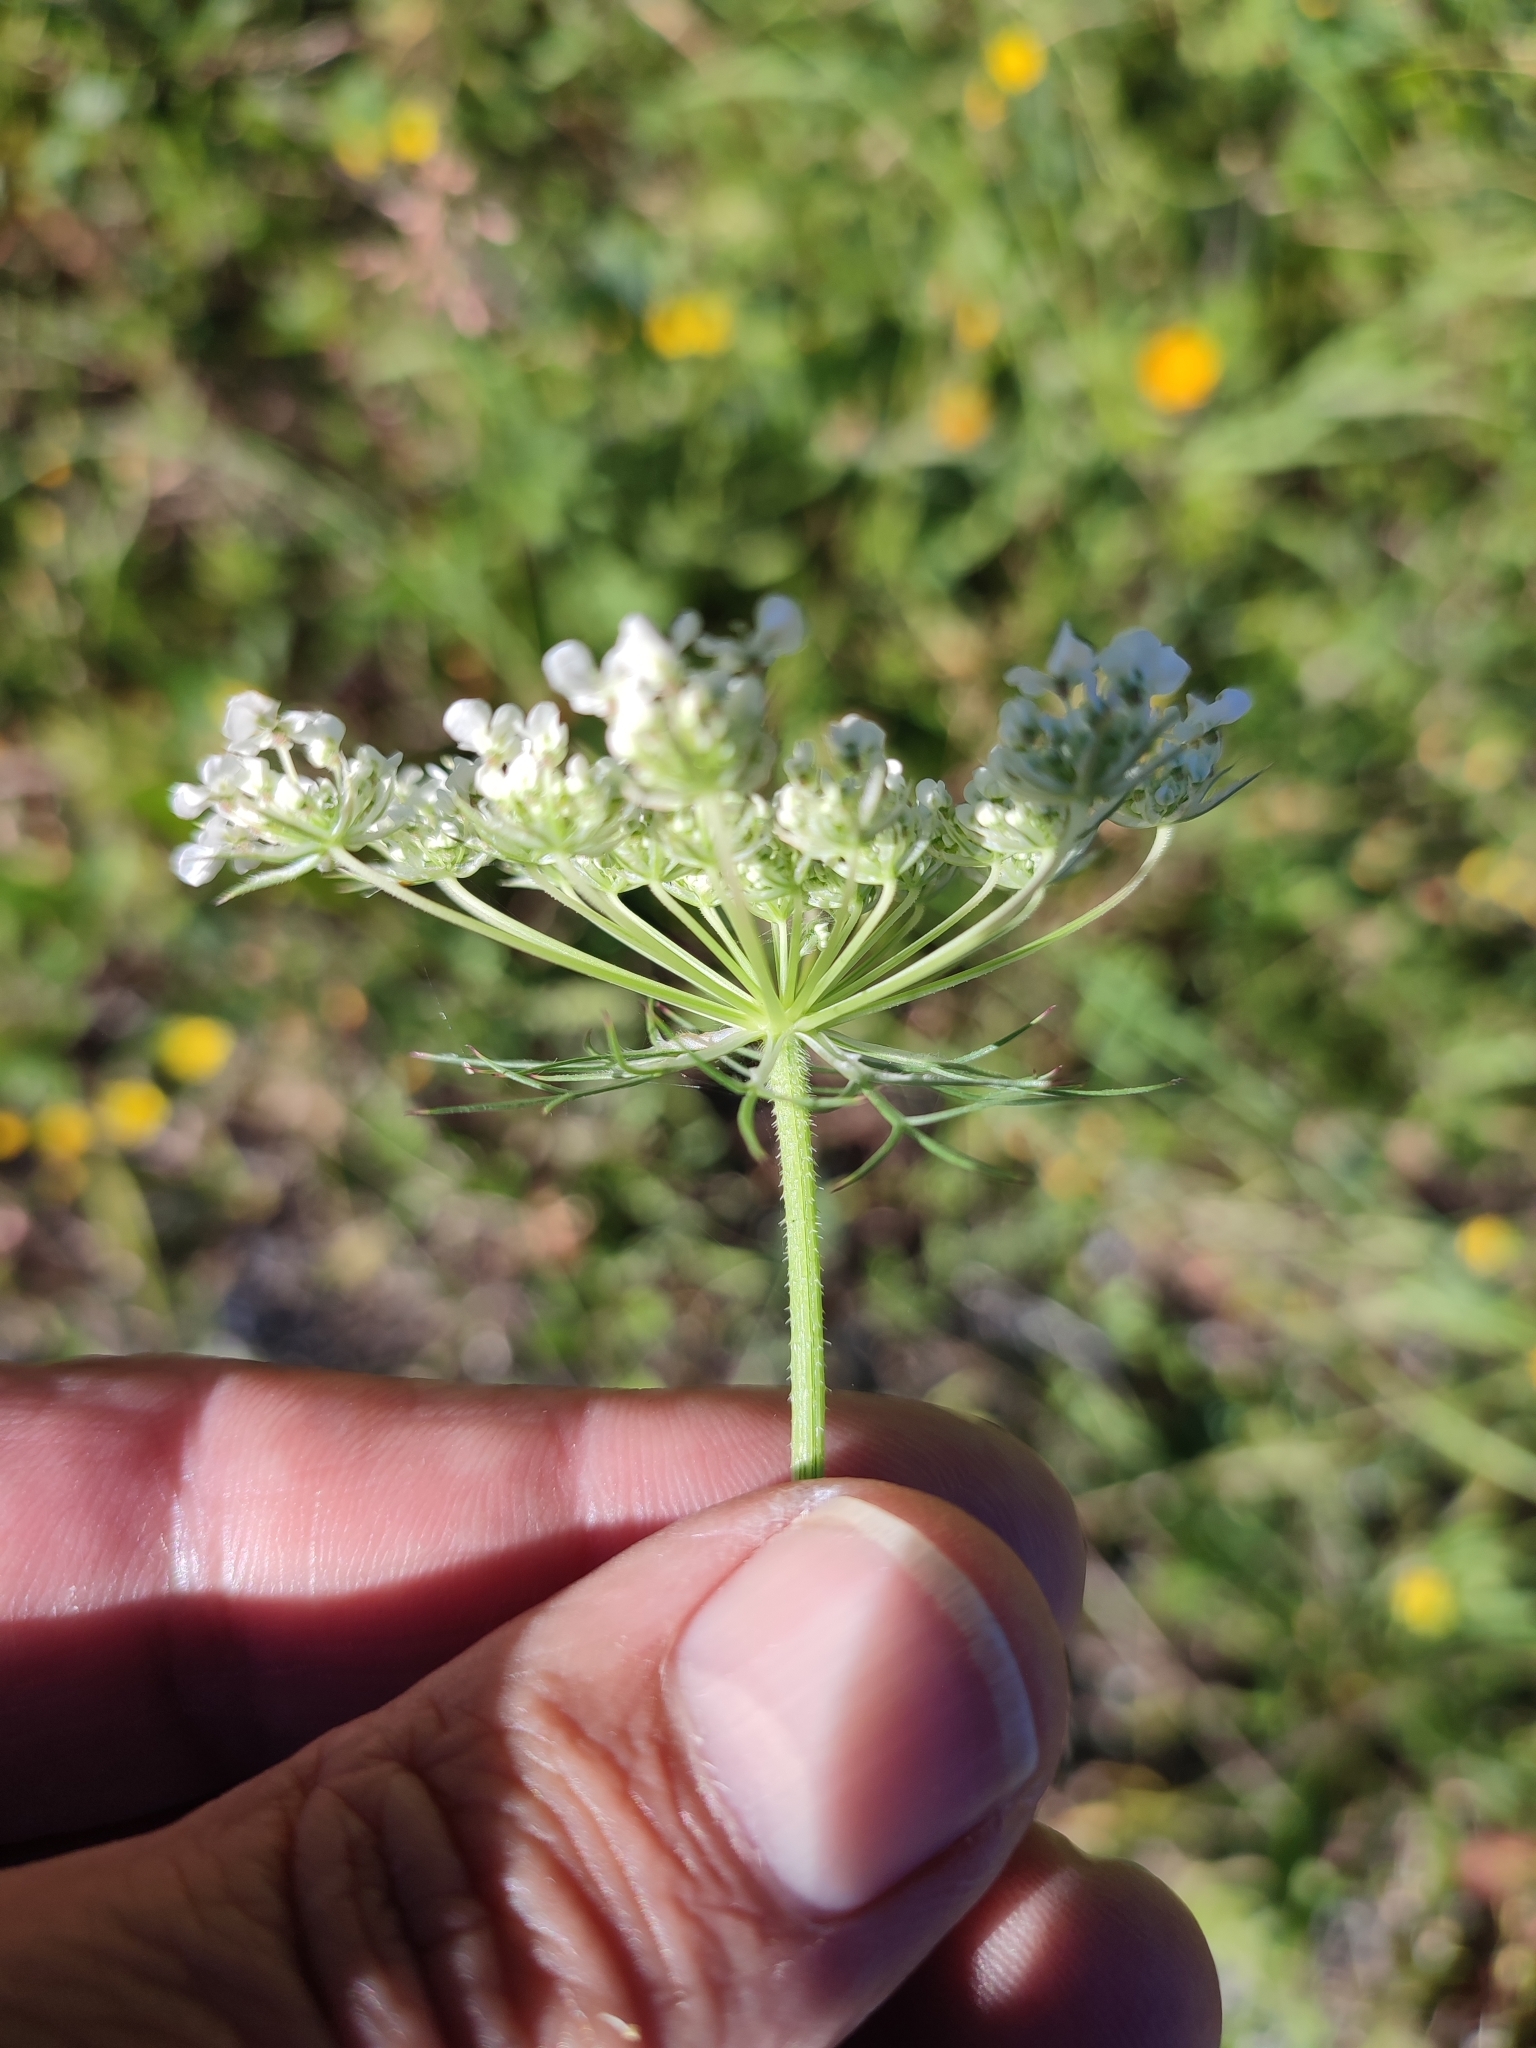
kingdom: Plantae
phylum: Tracheophyta
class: Magnoliopsida
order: Apiales
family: Apiaceae
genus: Daucus
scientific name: Daucus carota
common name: Wild carrot
